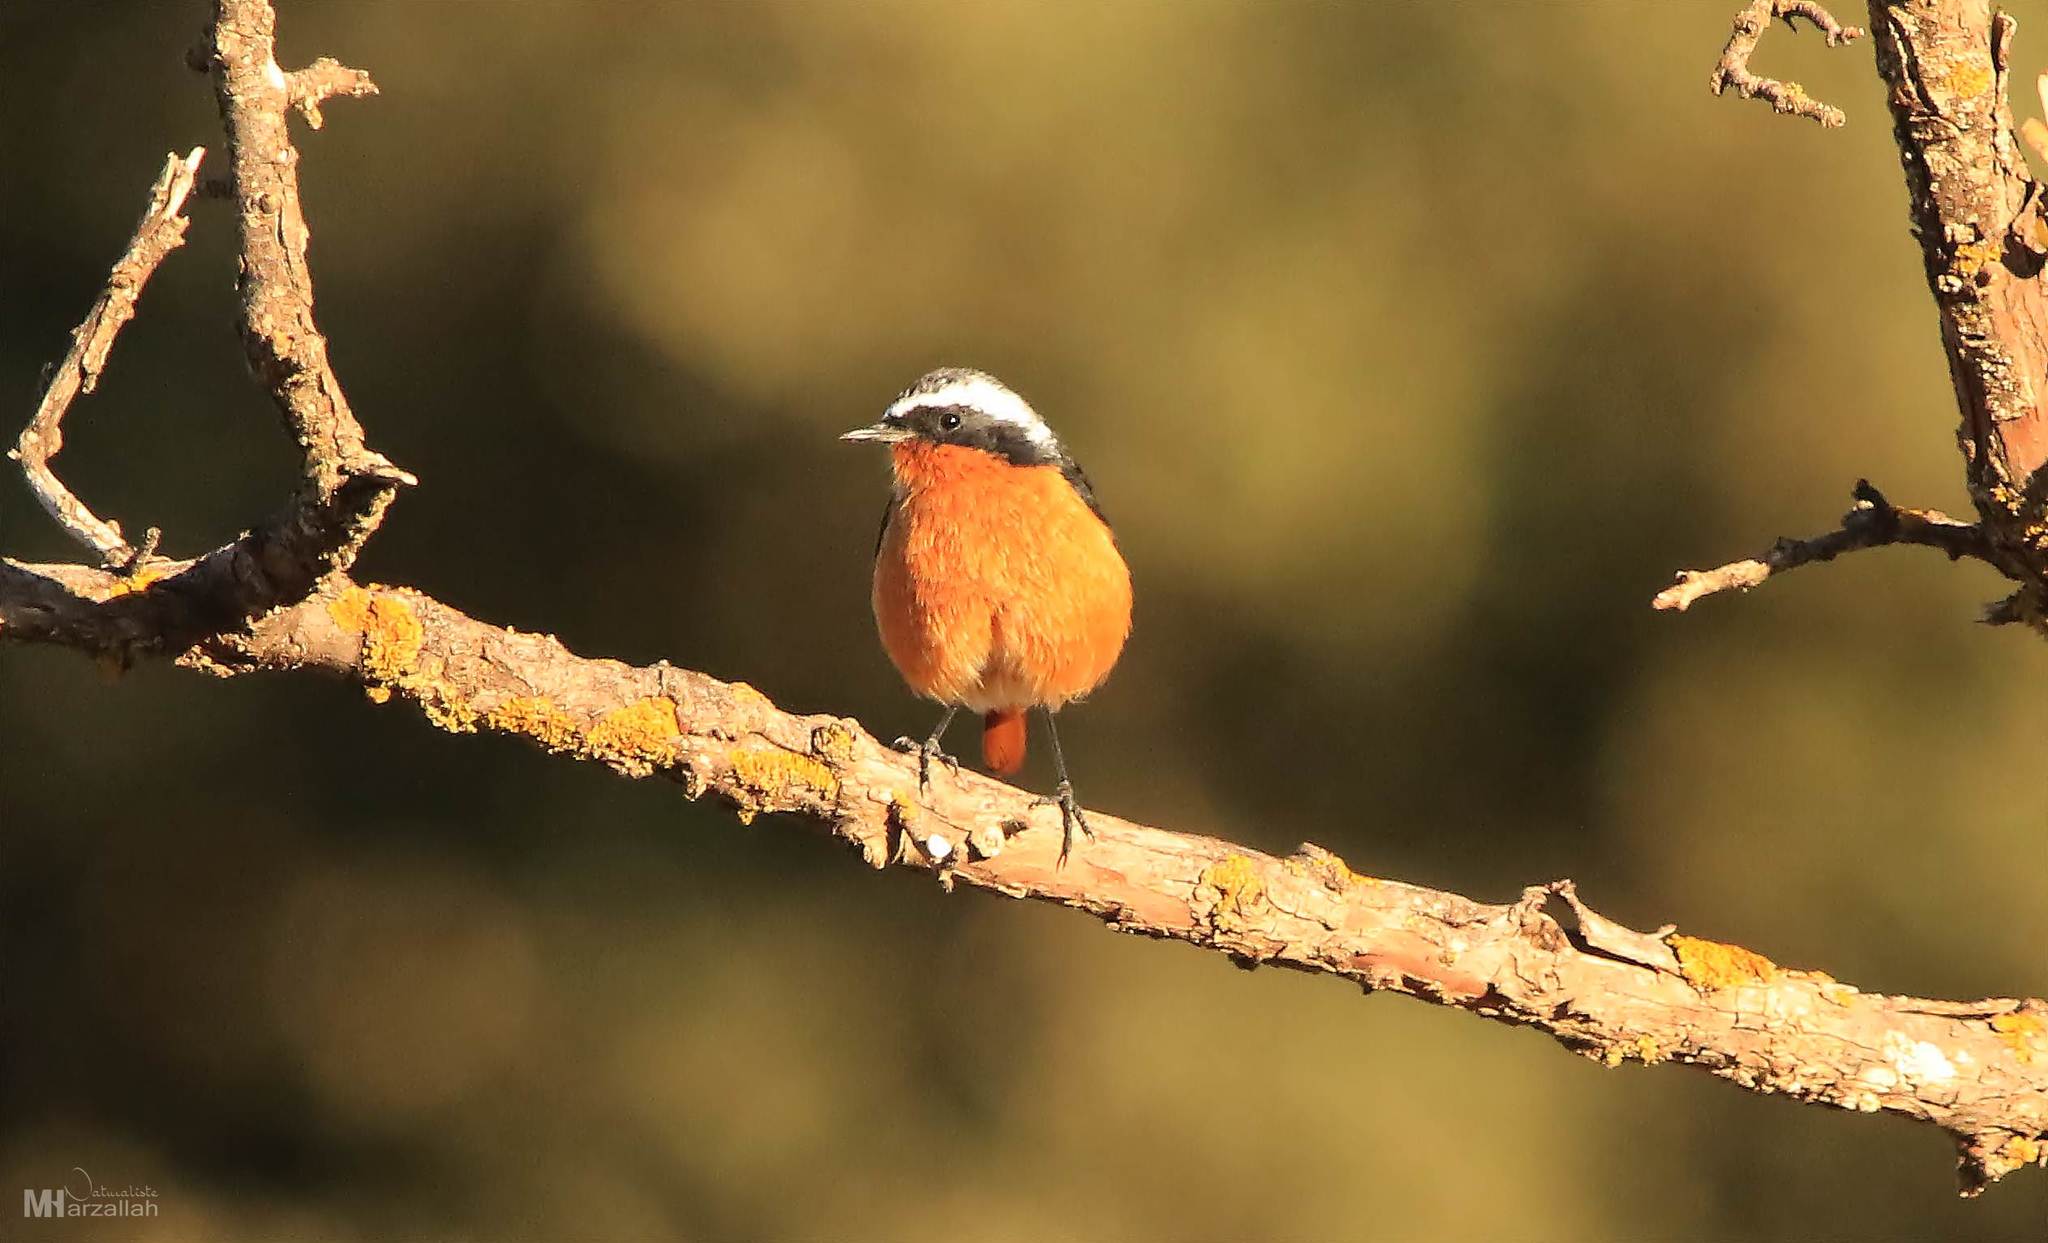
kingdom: Animalia
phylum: Chordata
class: Aves
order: Passeriformes
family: Muscicapidae
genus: Phoenicurus
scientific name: Phoenicurus moussieri
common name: Moussier's redstart
